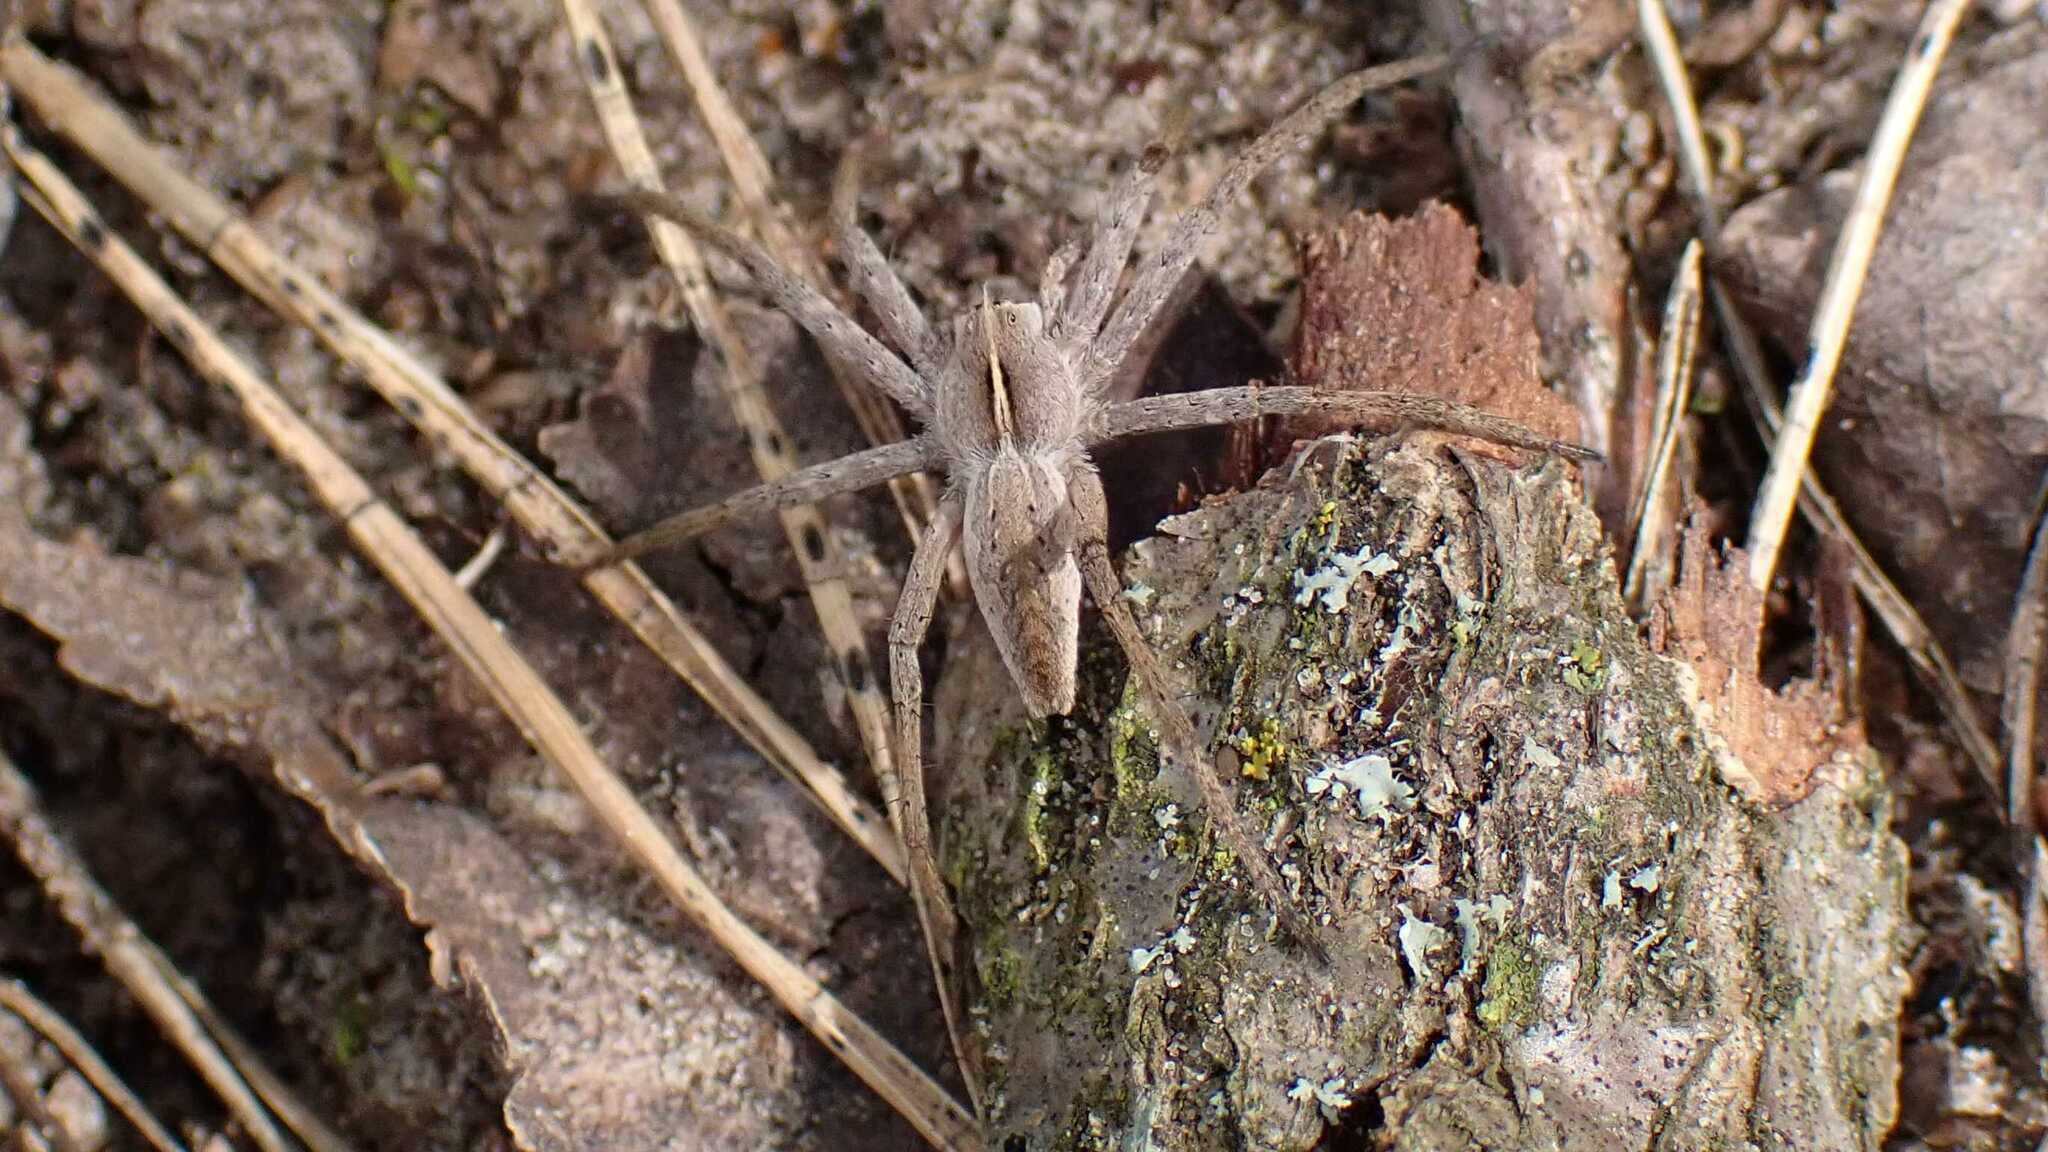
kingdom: Animalia
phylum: Arthropoda
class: Arachnida
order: Araneae
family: Pisauridae
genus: Pisaura
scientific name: Pisaura mirabilis
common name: Tent spider
